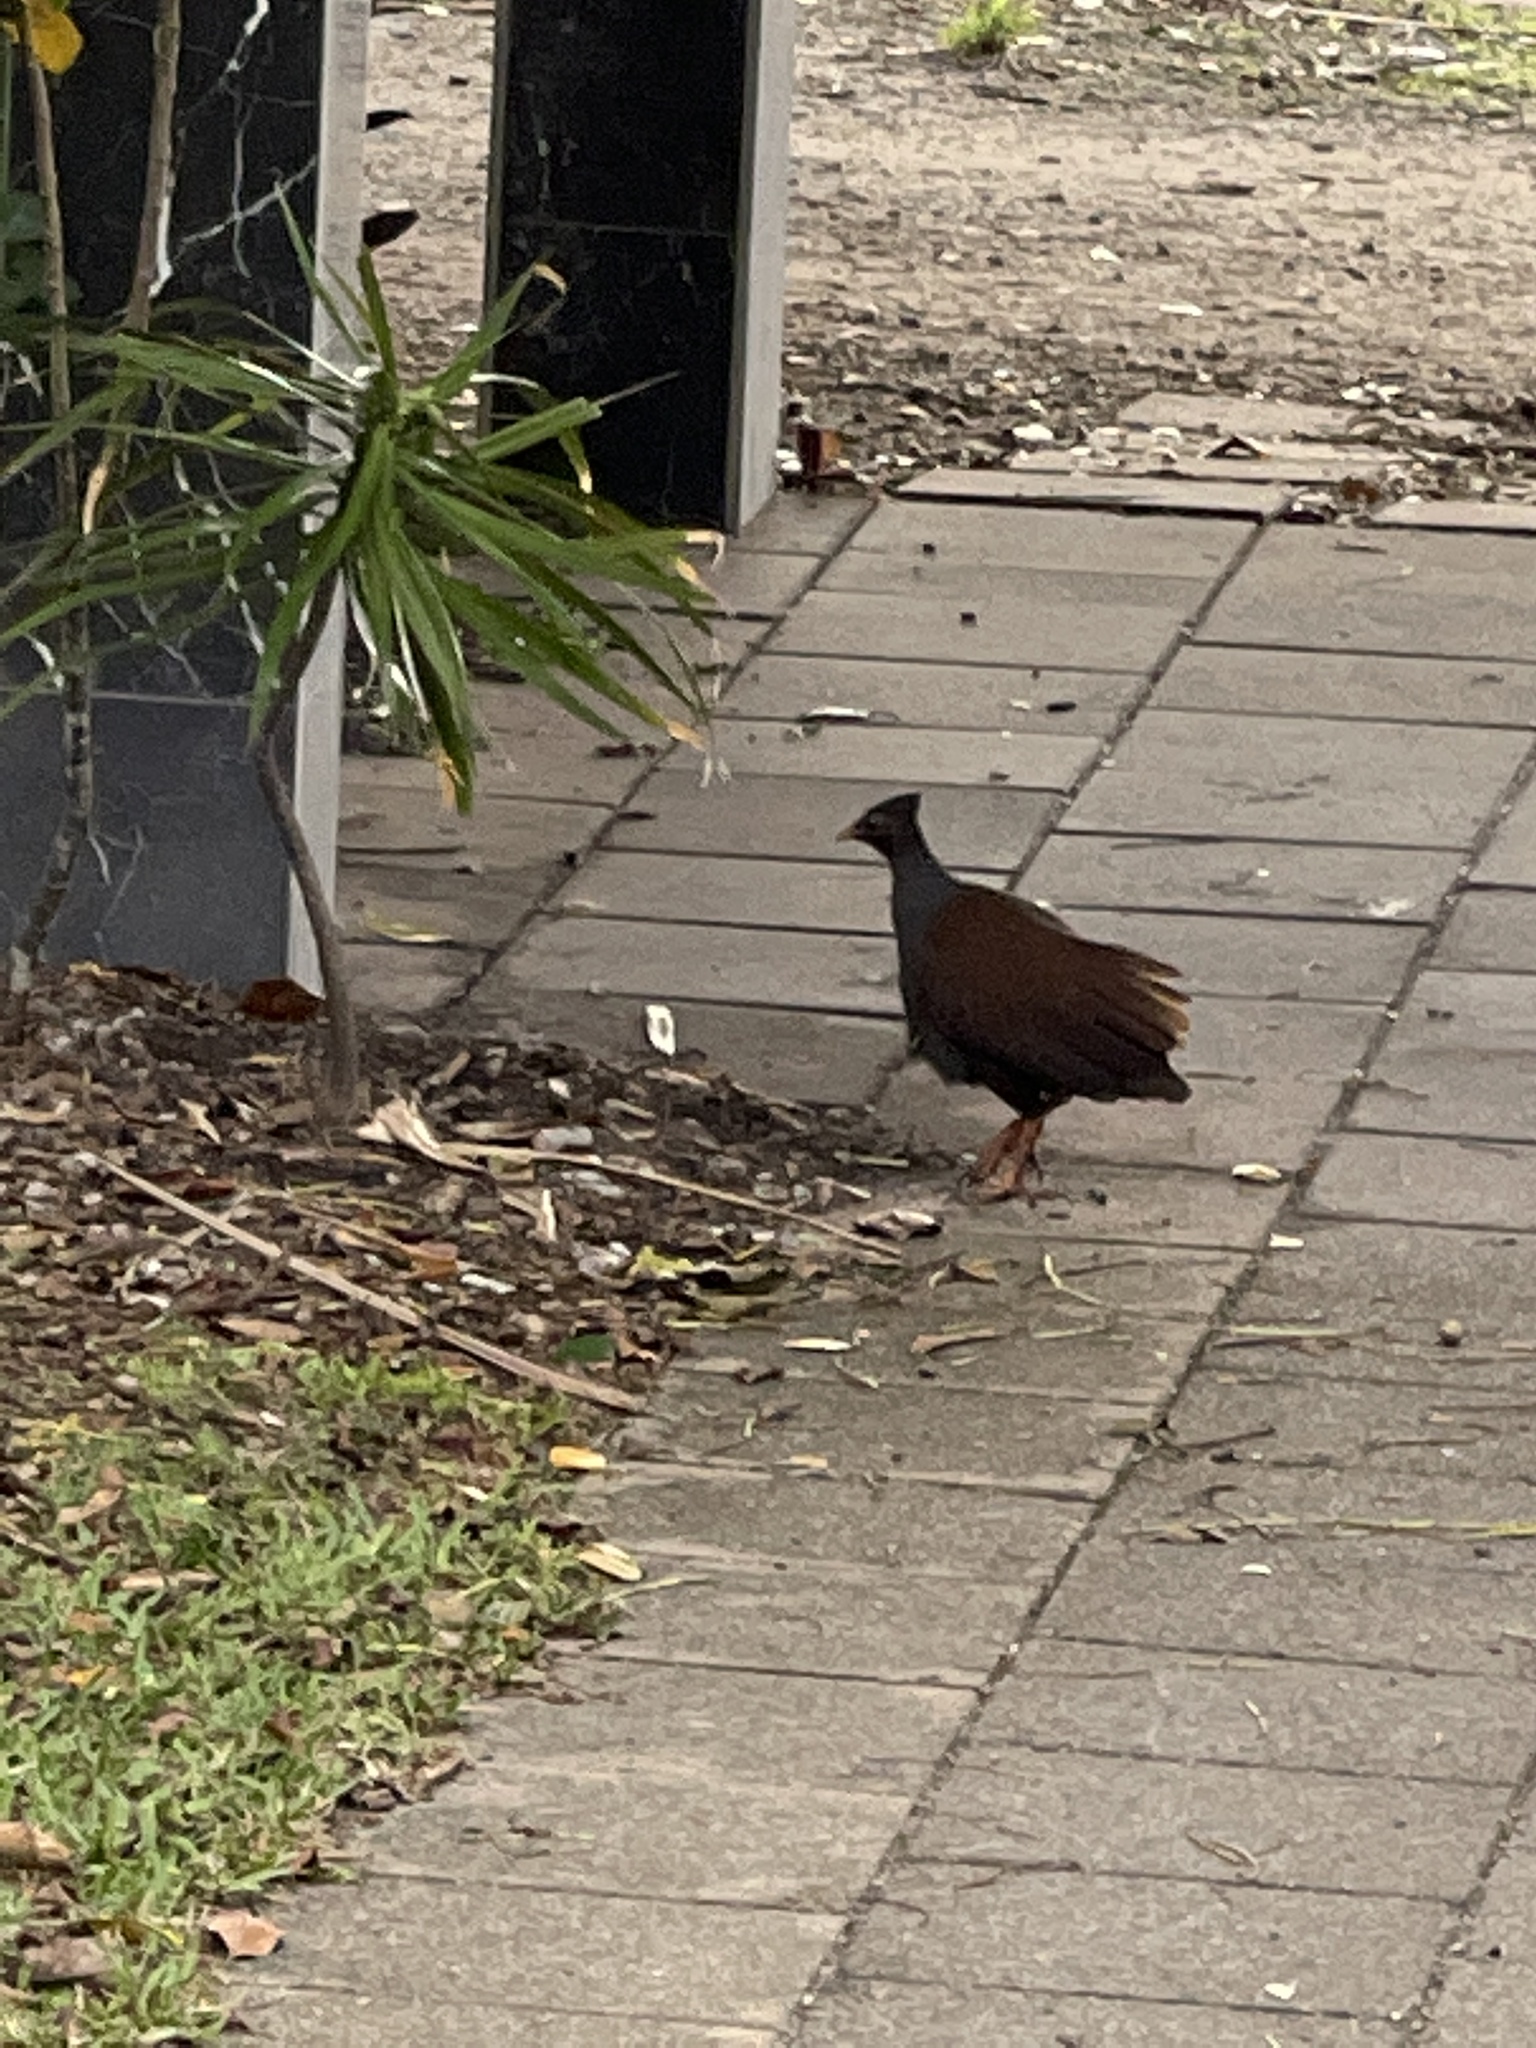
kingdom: Animalia
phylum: Chordata
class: Aves
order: Galliformes
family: Megapodiidae
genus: Megapodius
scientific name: Megapodius reinwardt
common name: Orange-footed scrubfowl
